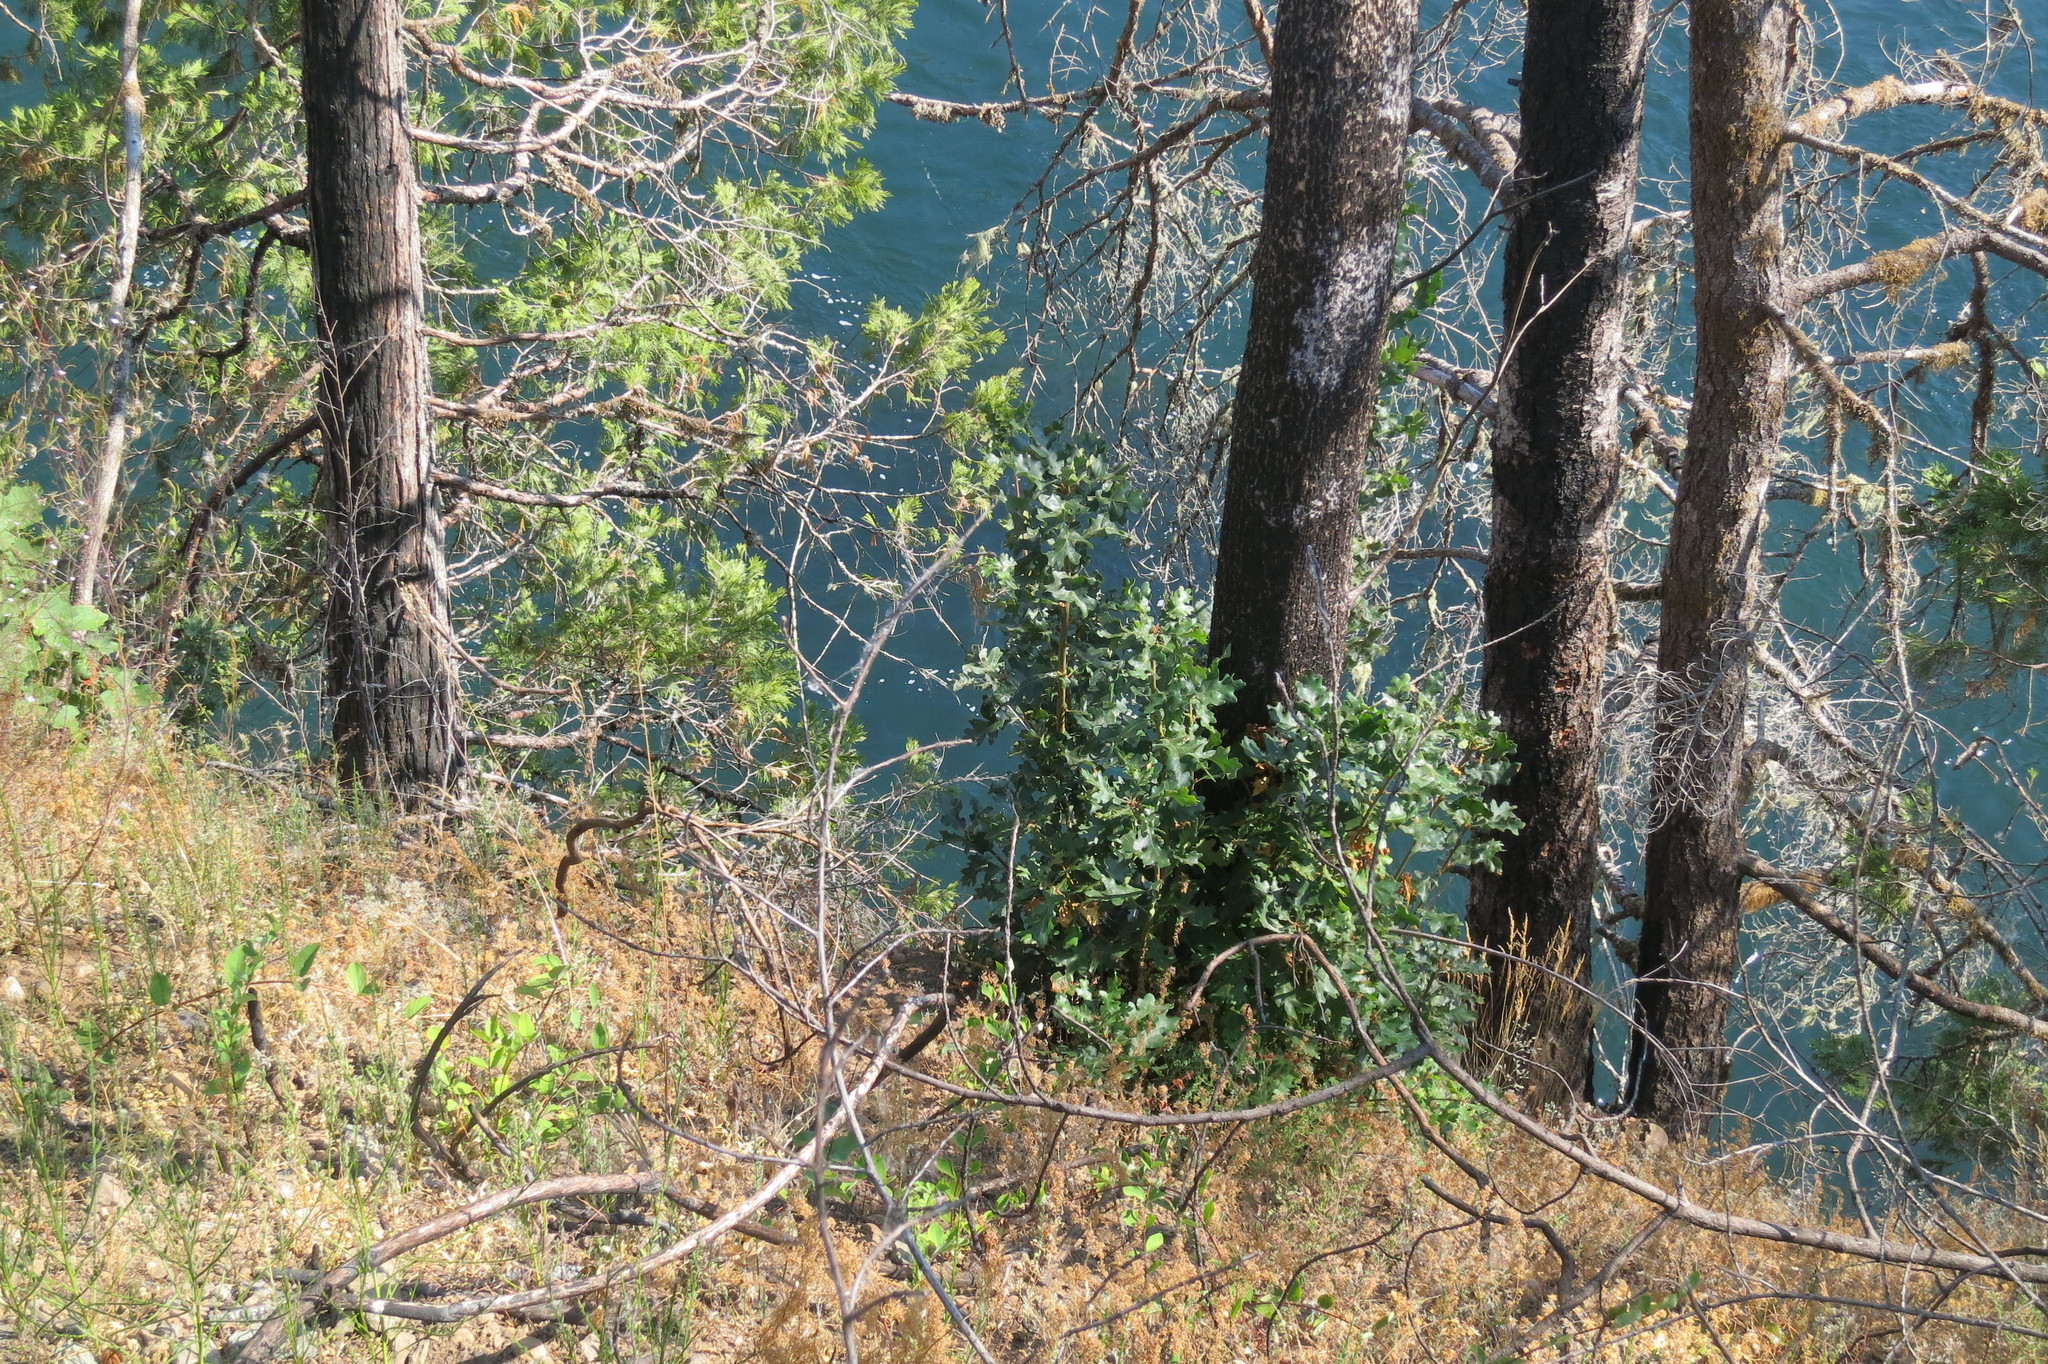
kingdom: Plantae
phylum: Tracheophyta
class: Magnoliopsida
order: Fagales
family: Fagaceae
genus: Quercus
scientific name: Quercus garryana
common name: Garry oak
